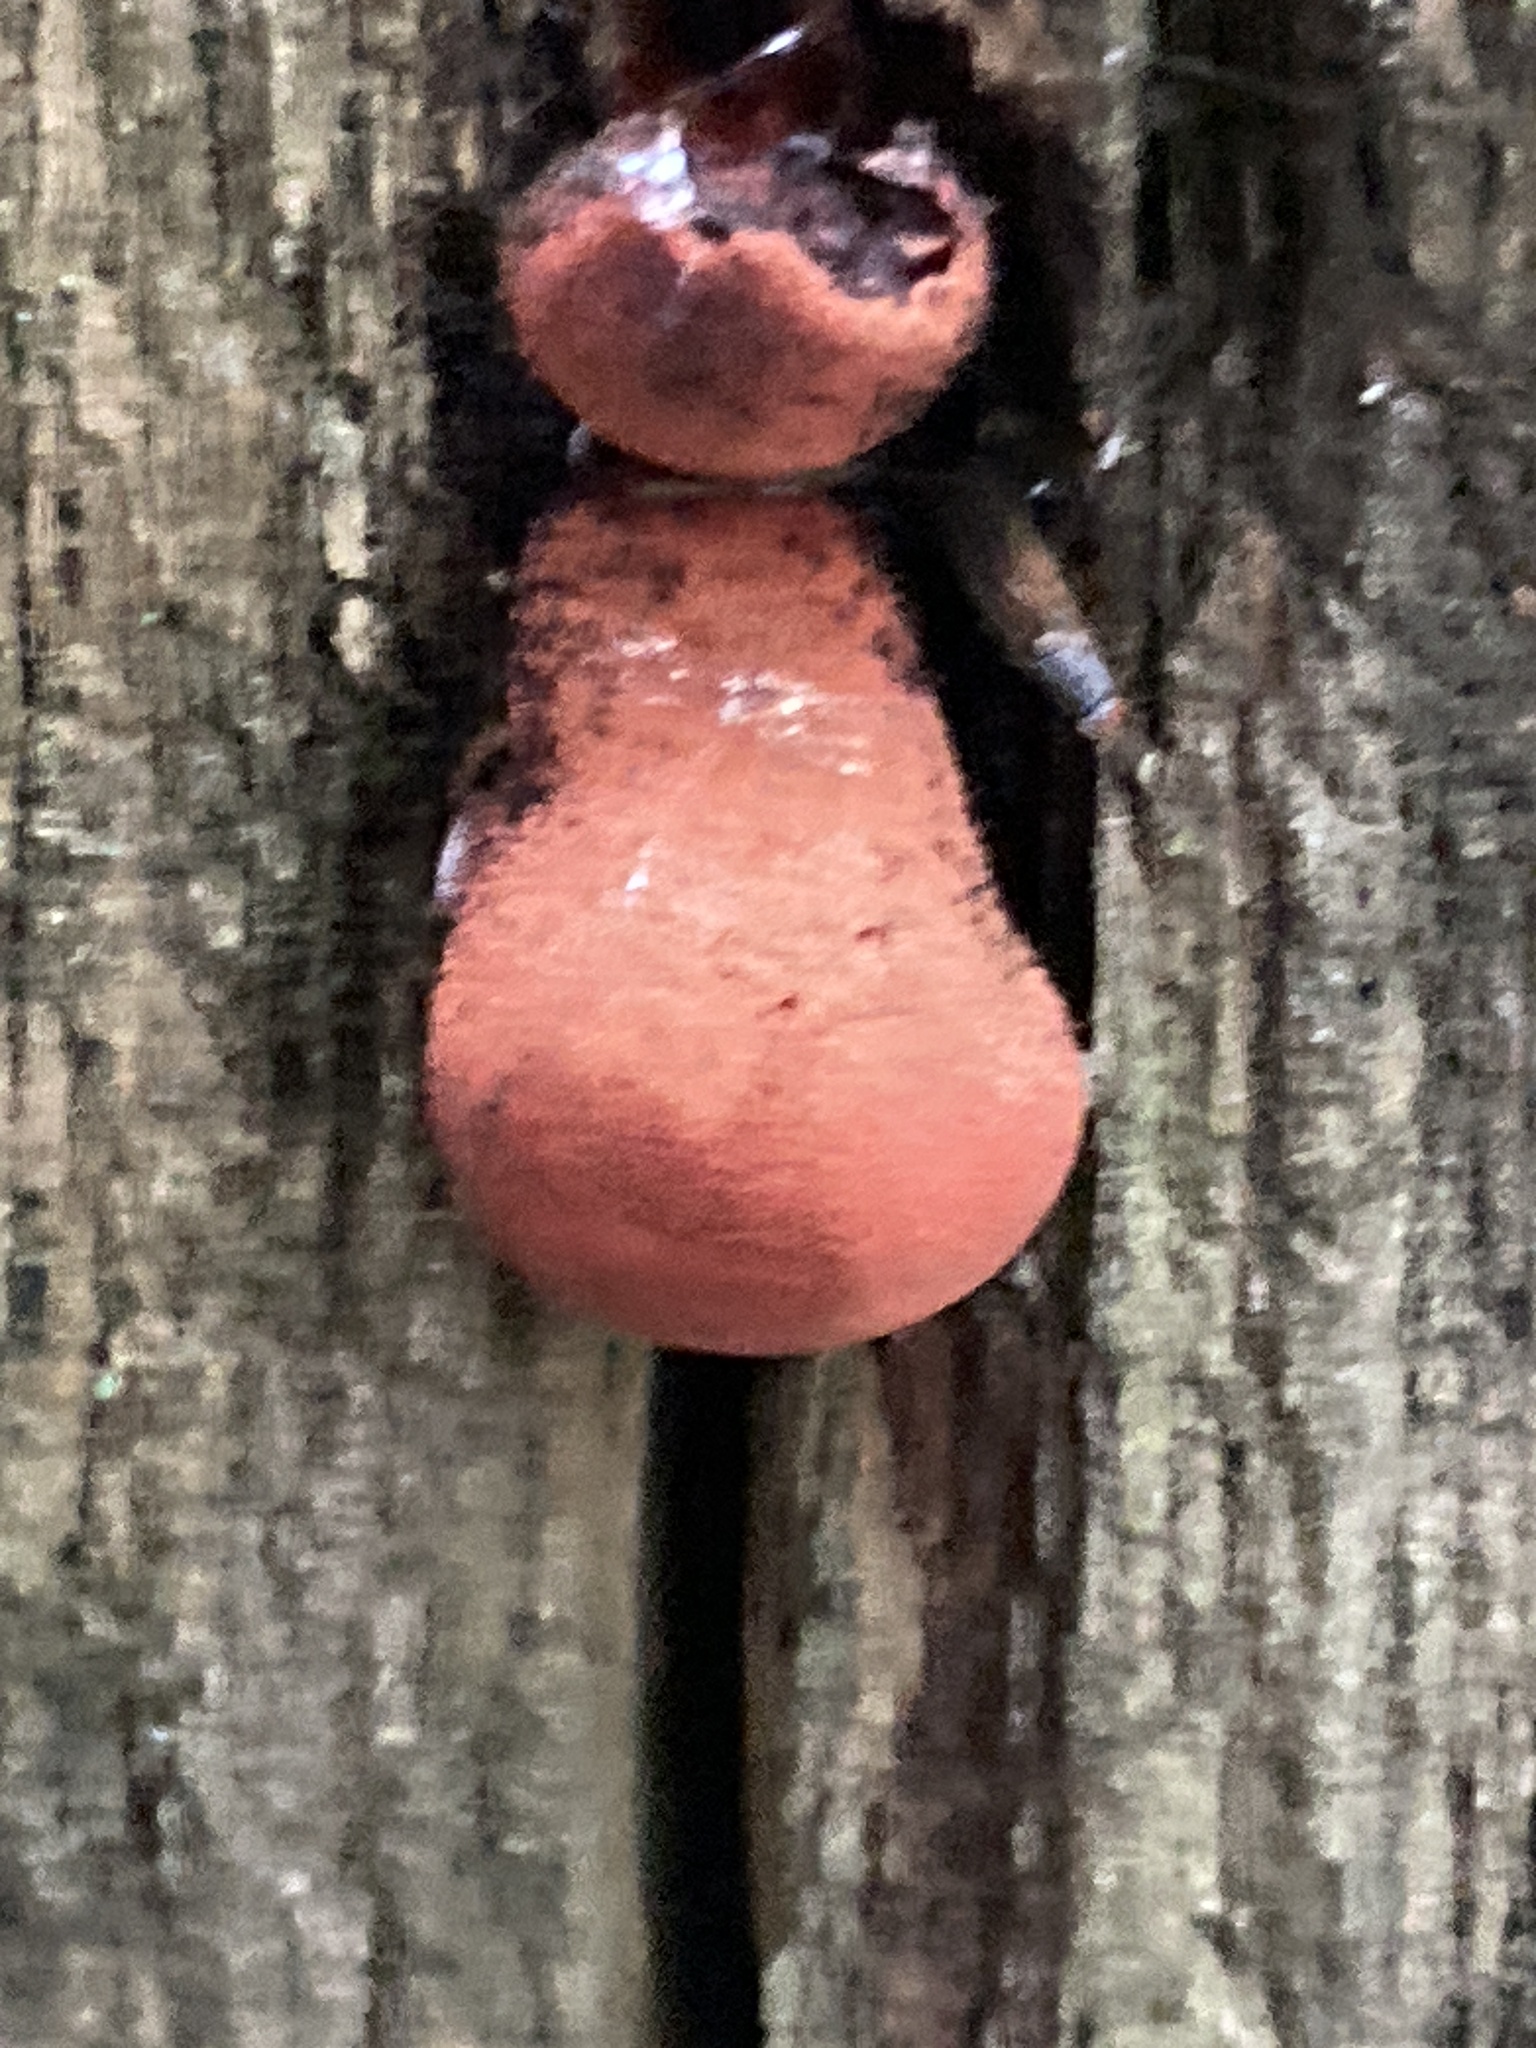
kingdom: Fungi
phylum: Basidiomycota
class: Agaricomycetes
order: Agaricales
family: Fistulinaceae
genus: Fistulina
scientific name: Fistulina hepatica
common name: Beef-steak fungus
